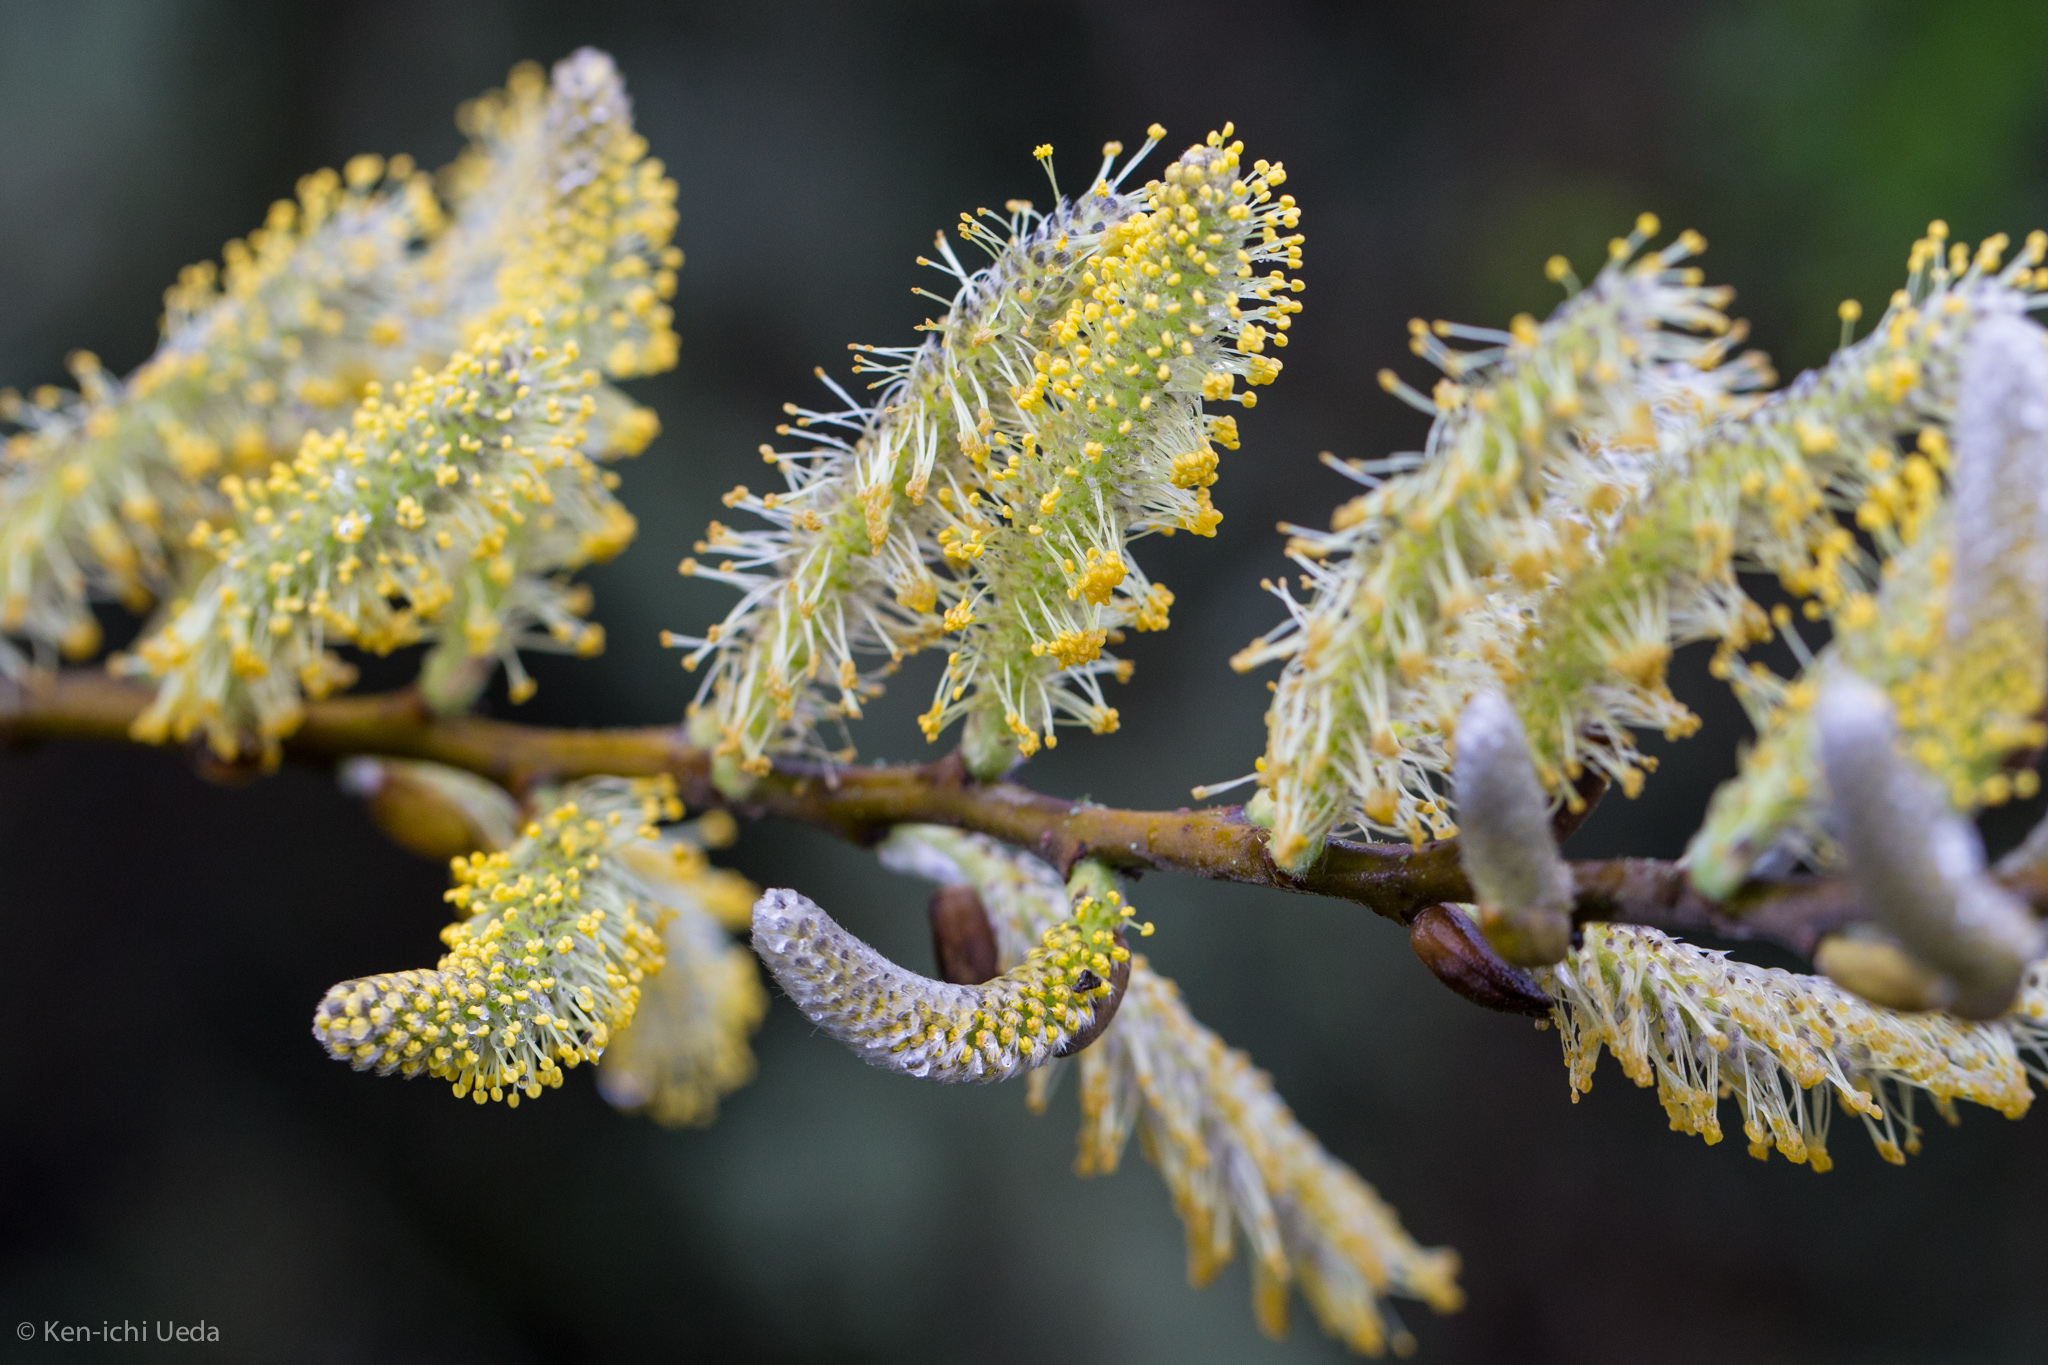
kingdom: Plantae
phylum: Tracheophyta
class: Magnoliopsida
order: Malpighiales
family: Salicaceae
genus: Salix
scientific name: Salix
